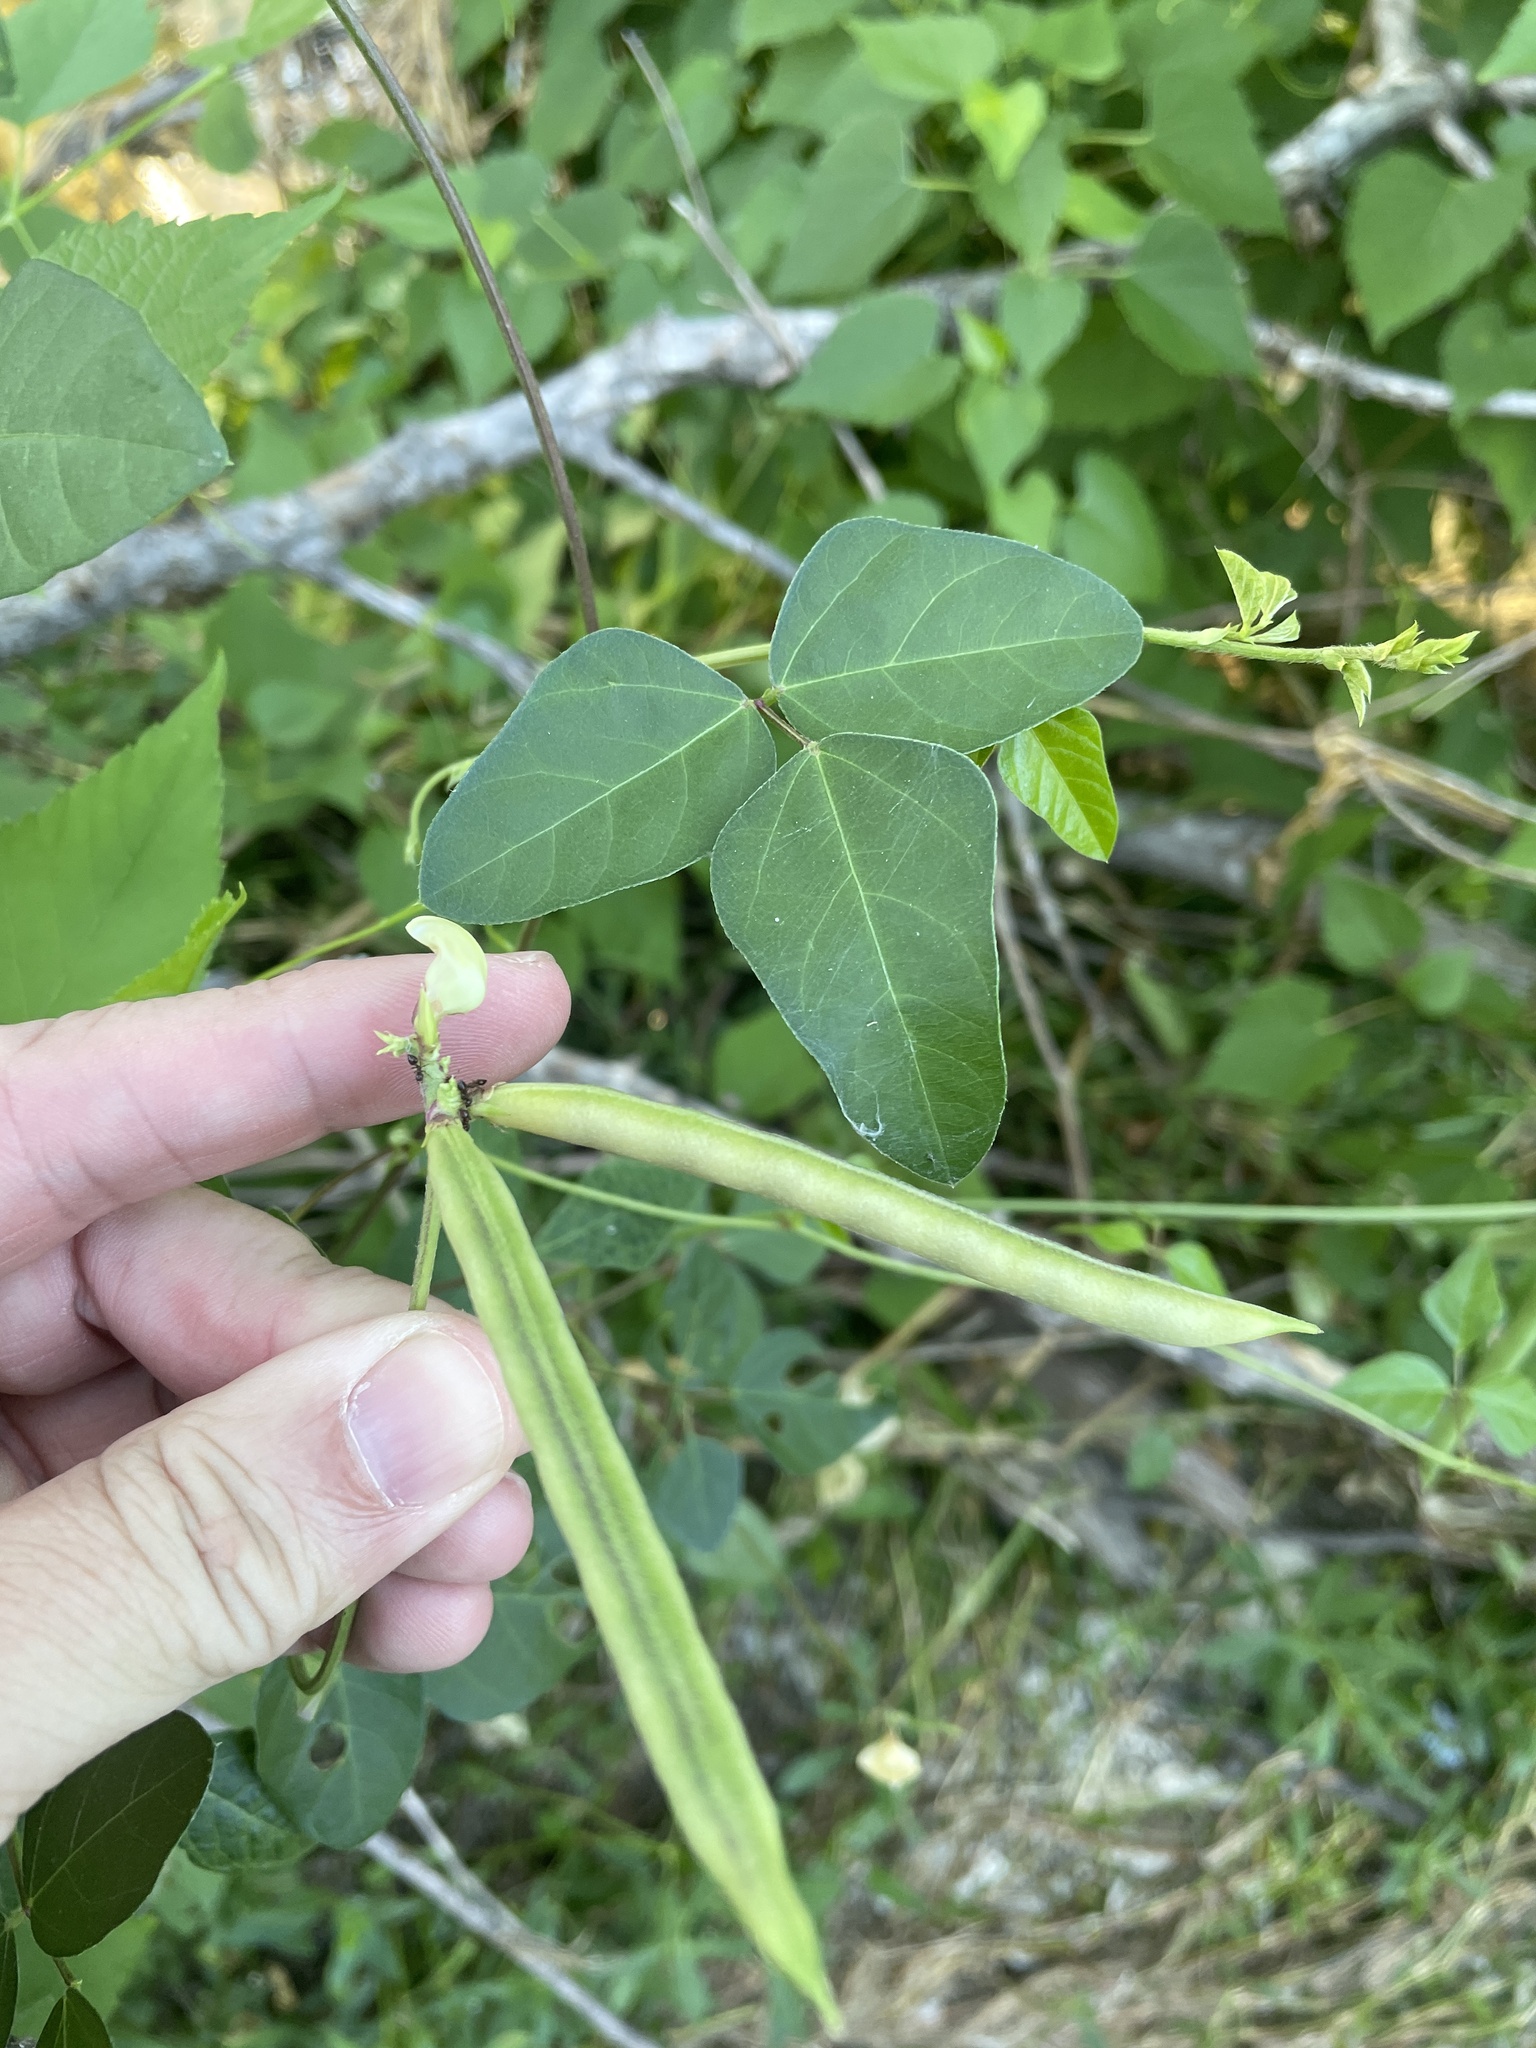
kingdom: Plantae
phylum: Tracheophyta
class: Magnoliopsida
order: Fabales
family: Fabaceae
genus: Strophostyles
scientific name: Strophostyles helvola
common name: Trailing wild bean
